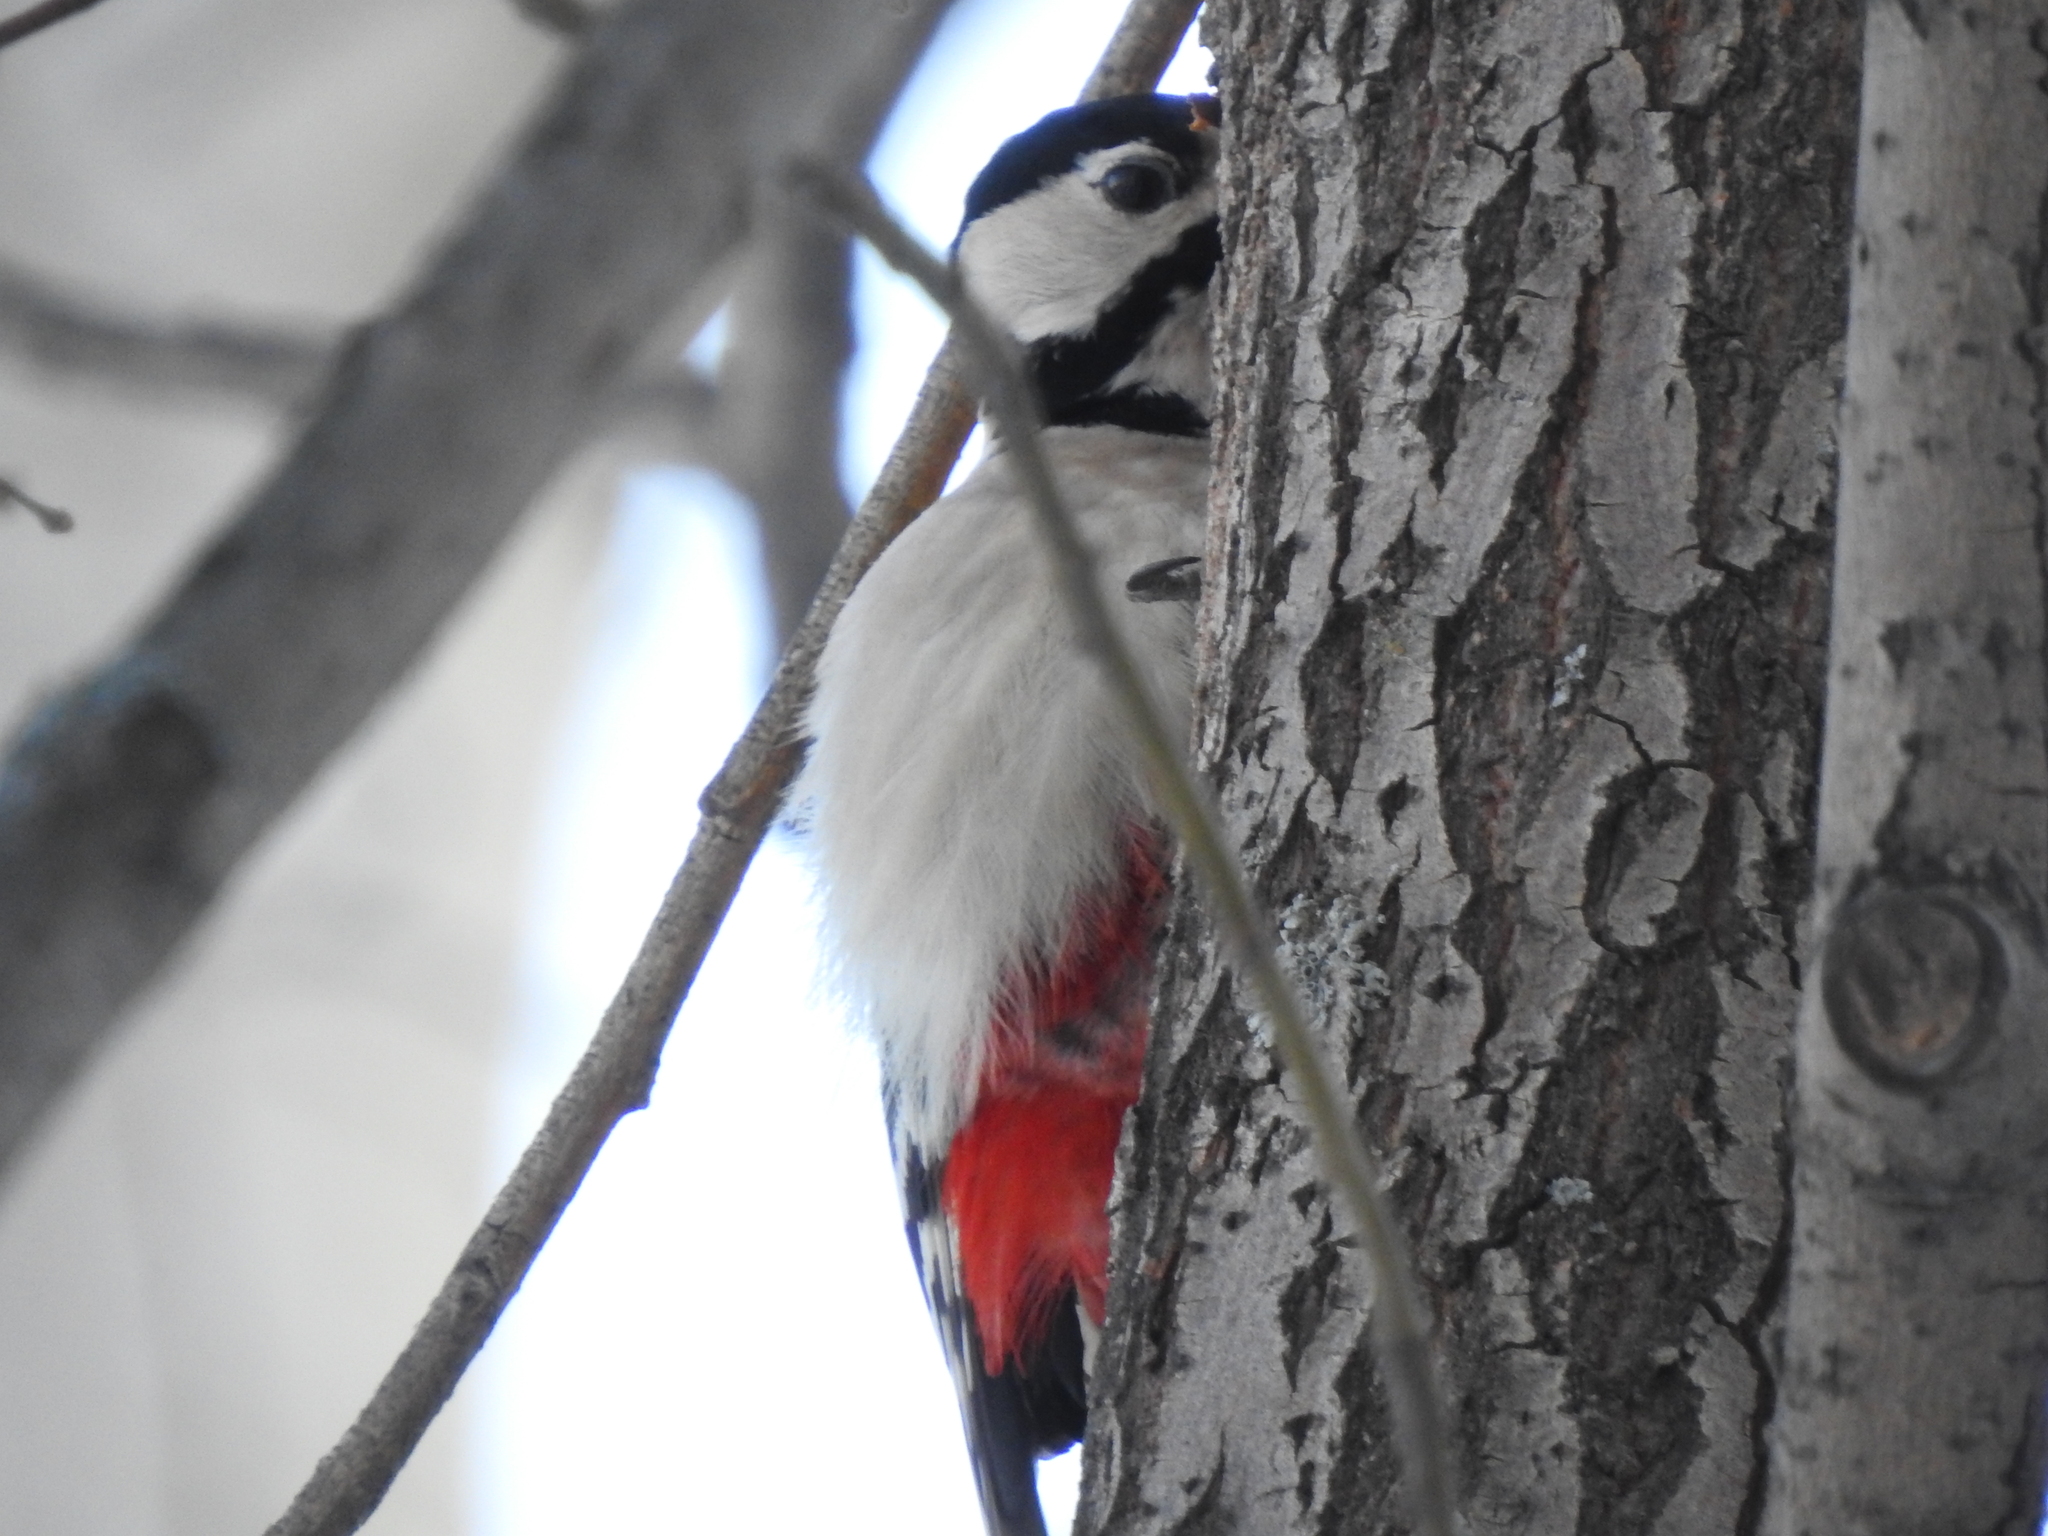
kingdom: Animalia
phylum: Chordata
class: Aves
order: Piciformes
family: Picidae
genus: Dendrocopos
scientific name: Dendrocopos major
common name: Great spotted woodpecker
